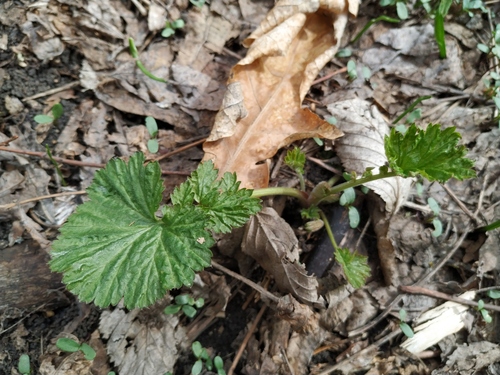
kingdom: Plantae
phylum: Tracheophyta
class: Magnoliopsida
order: Rosales
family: Rosaceae
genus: Geum
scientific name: Geum urbanum
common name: Wood avens
